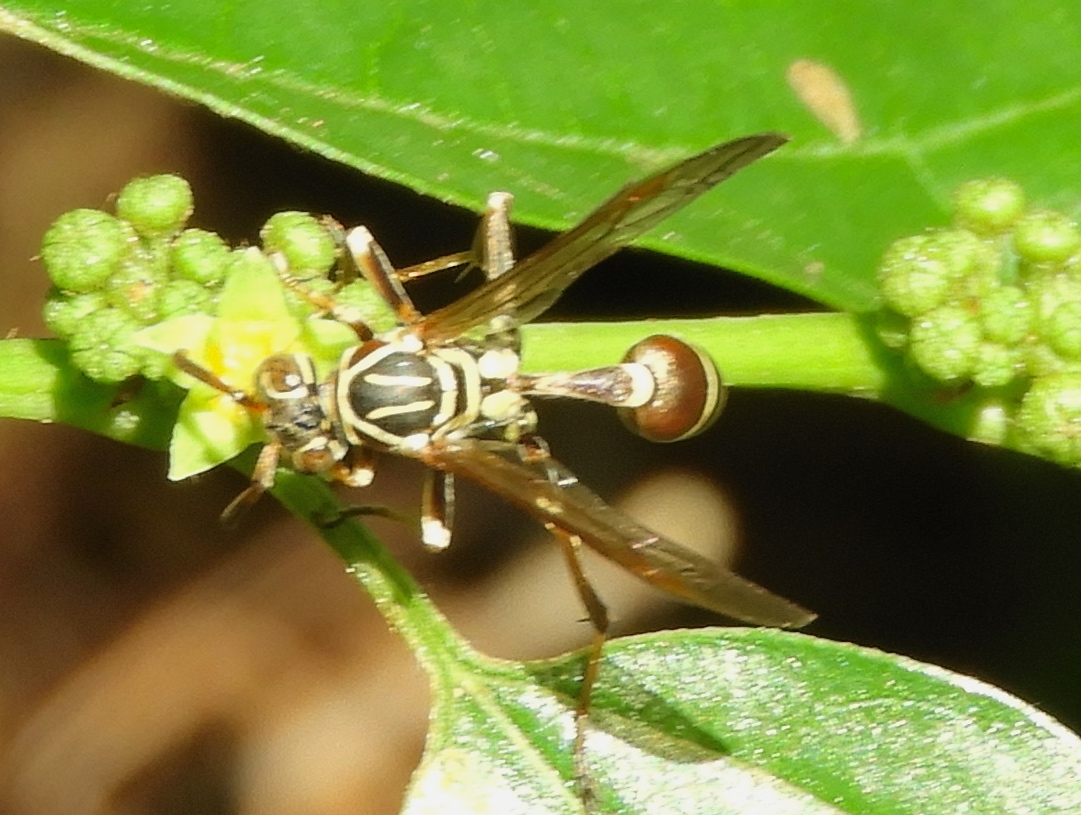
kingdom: Animalia
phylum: Arthropoda
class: Insecta
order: Hymenoptera
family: Vespidae
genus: Mischocyttarus
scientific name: Mischocyttarus mexicanus
